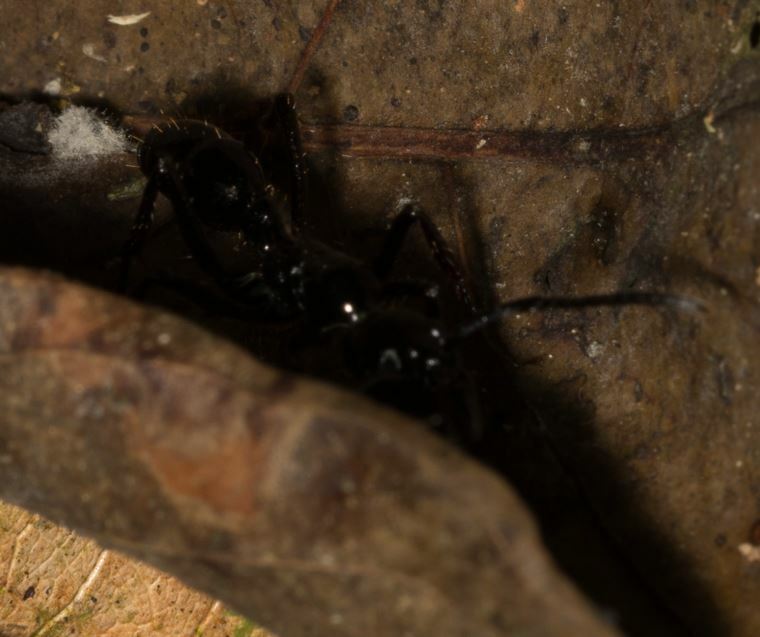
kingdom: Animalia
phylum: Arthropoda
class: Insecta
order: Hymenoptera
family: Formicidae
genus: Paraponera
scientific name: Paraponera clavata
